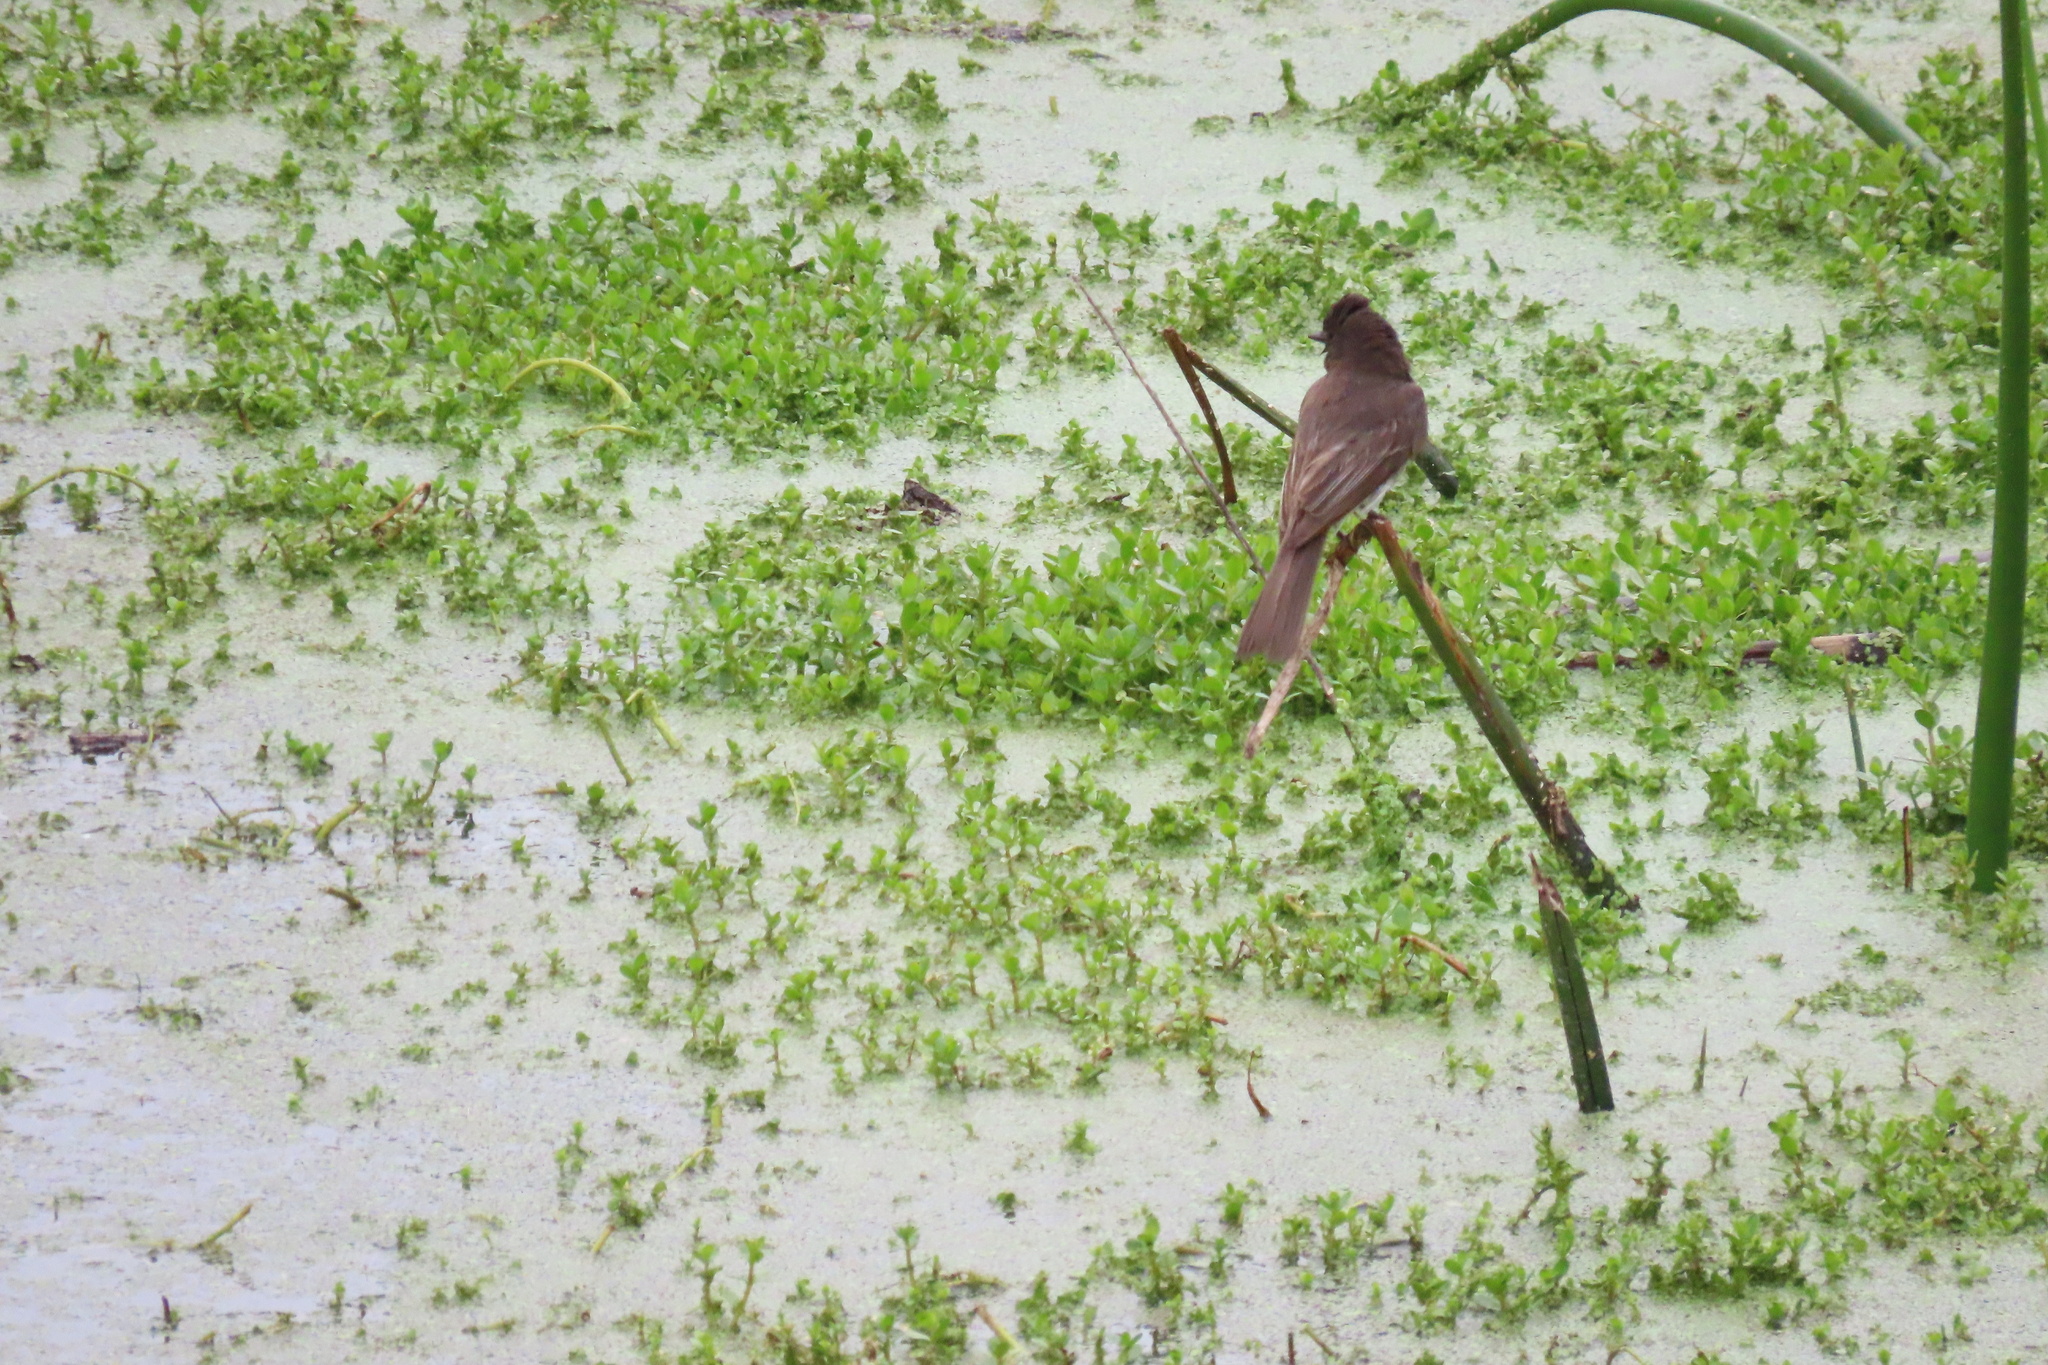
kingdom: Animalia
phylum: Chordata
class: Aves
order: Passeriformes
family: Tyrannidae
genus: Sayornis
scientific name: Sayornis nigricans
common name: Black phoebe
